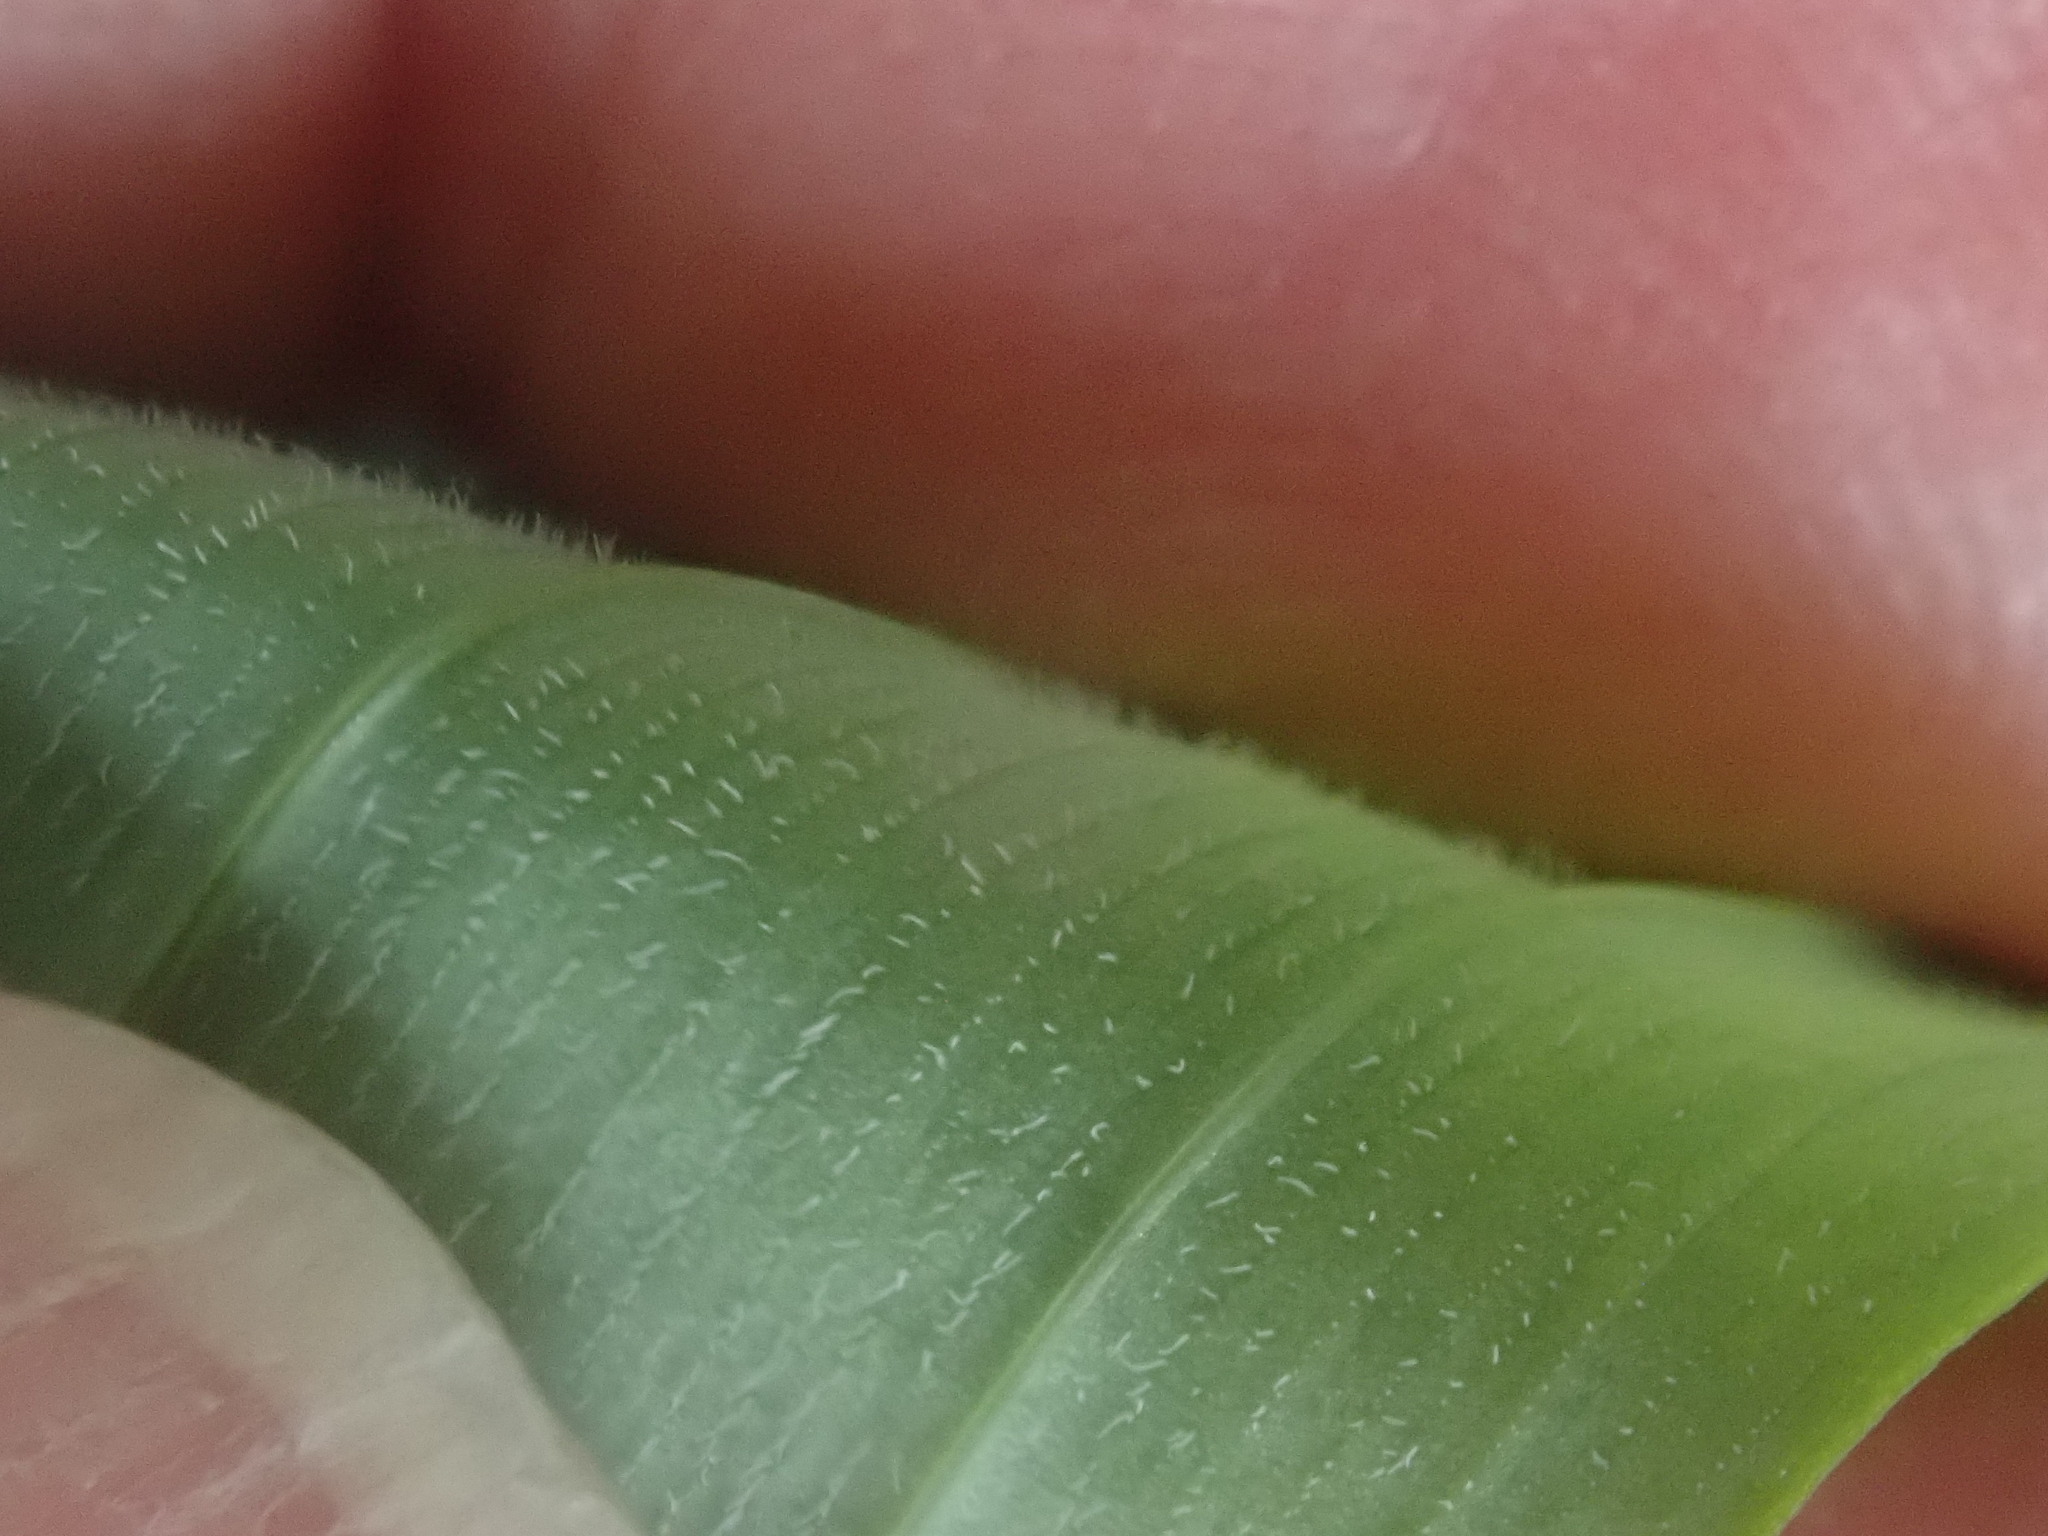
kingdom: Plantae
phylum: Tracheophyta
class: Liliopsida
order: Asparagales
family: Asparagaceae
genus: Polygonatum
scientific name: Polygonatum pubescens
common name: Downy solomon's seal
